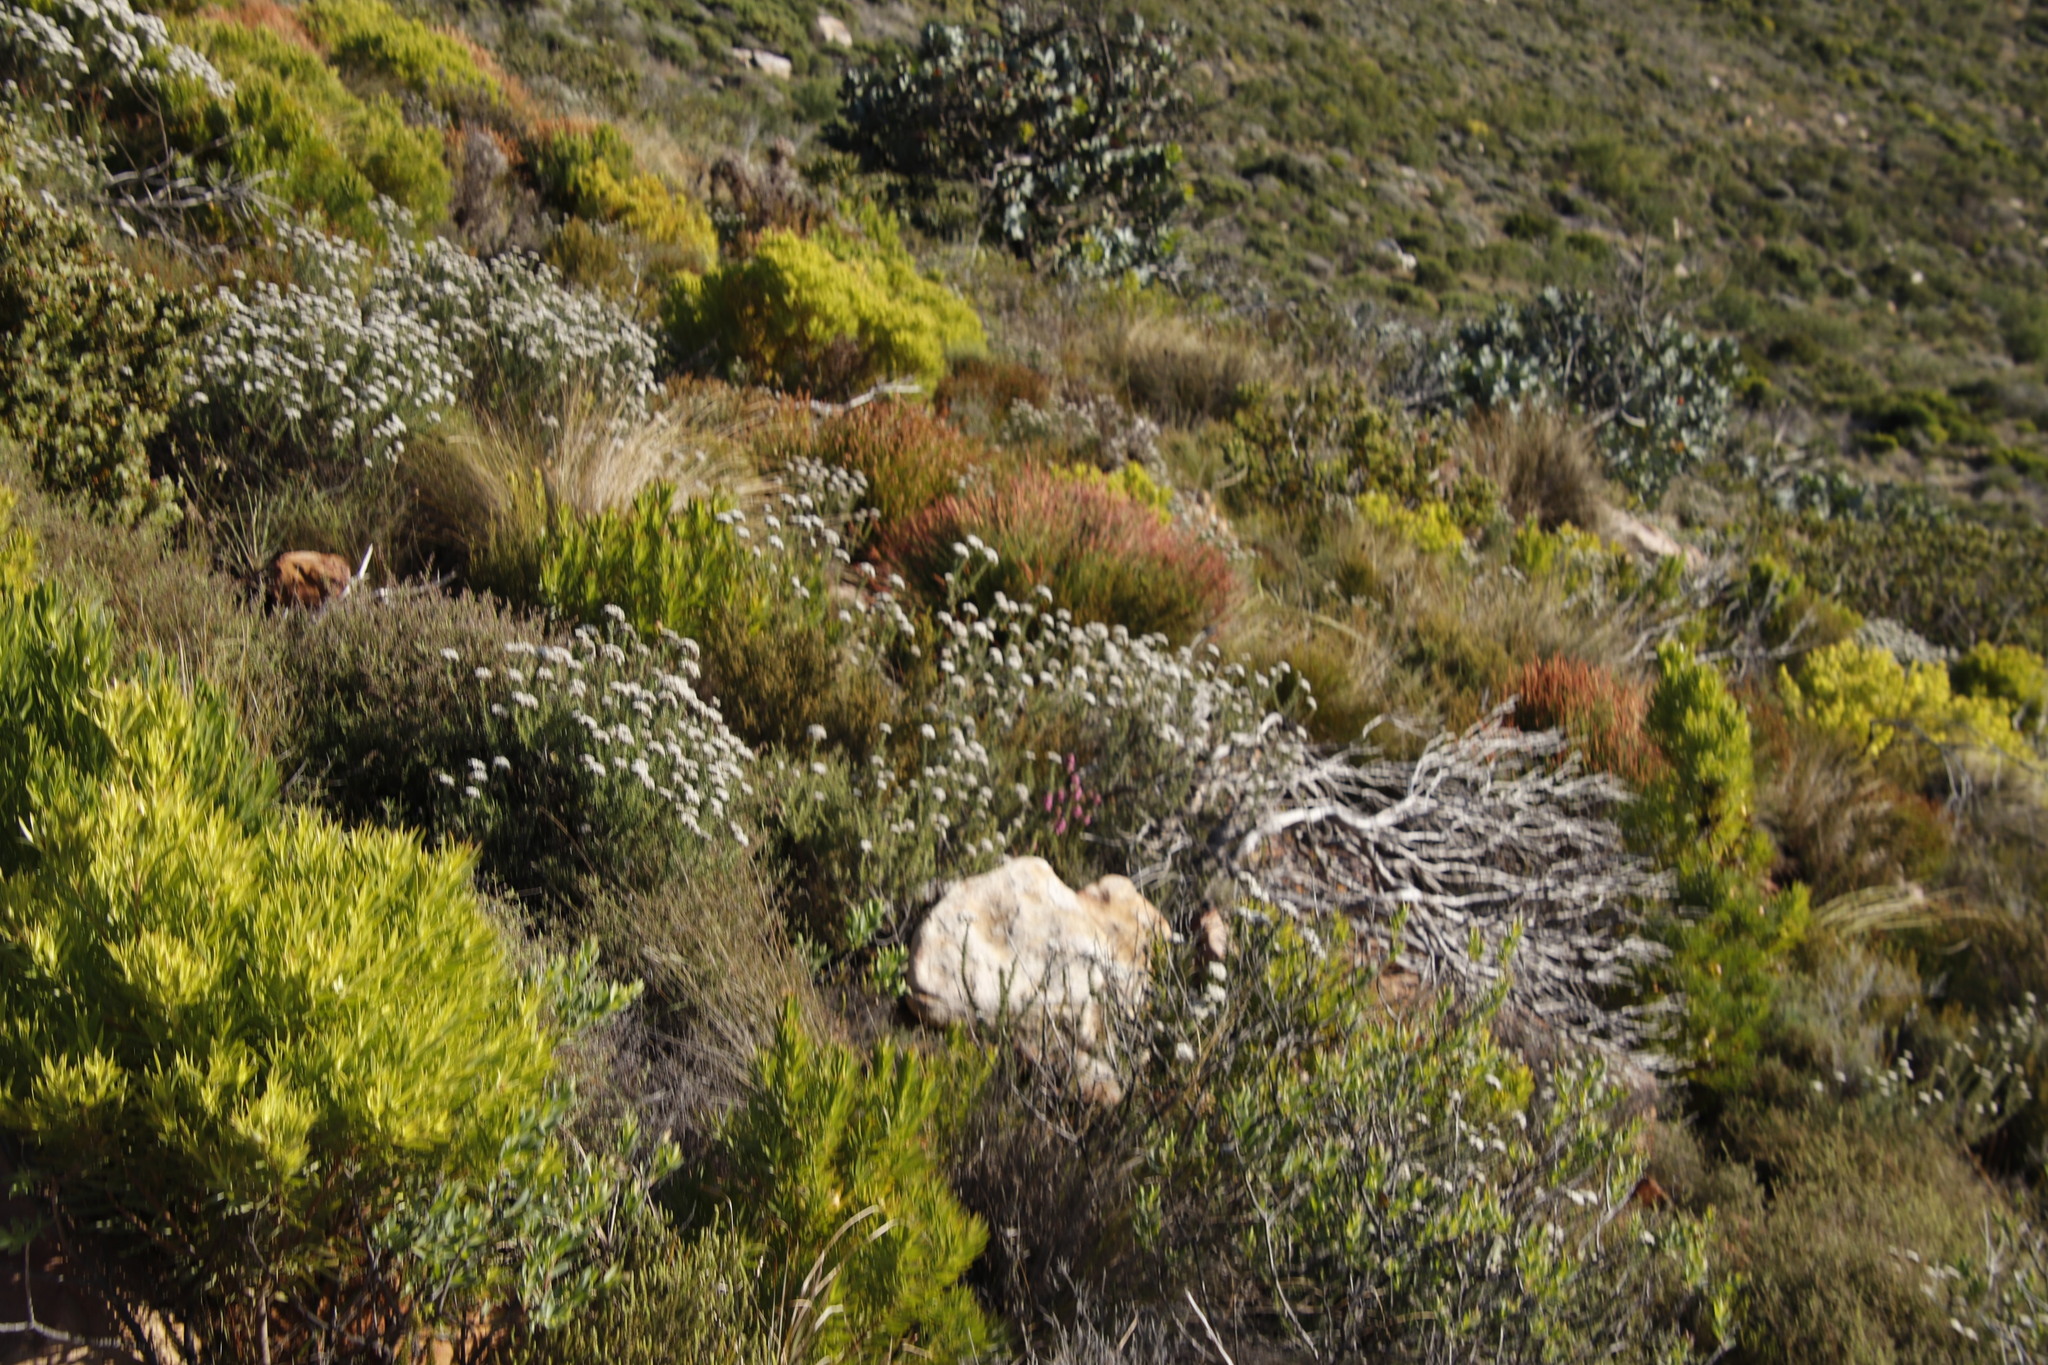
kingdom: Plantae
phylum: Tracheophyta
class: Magnoliopsida
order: Asterales
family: Asteraceae
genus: Metalasia
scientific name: Metalasia densa
